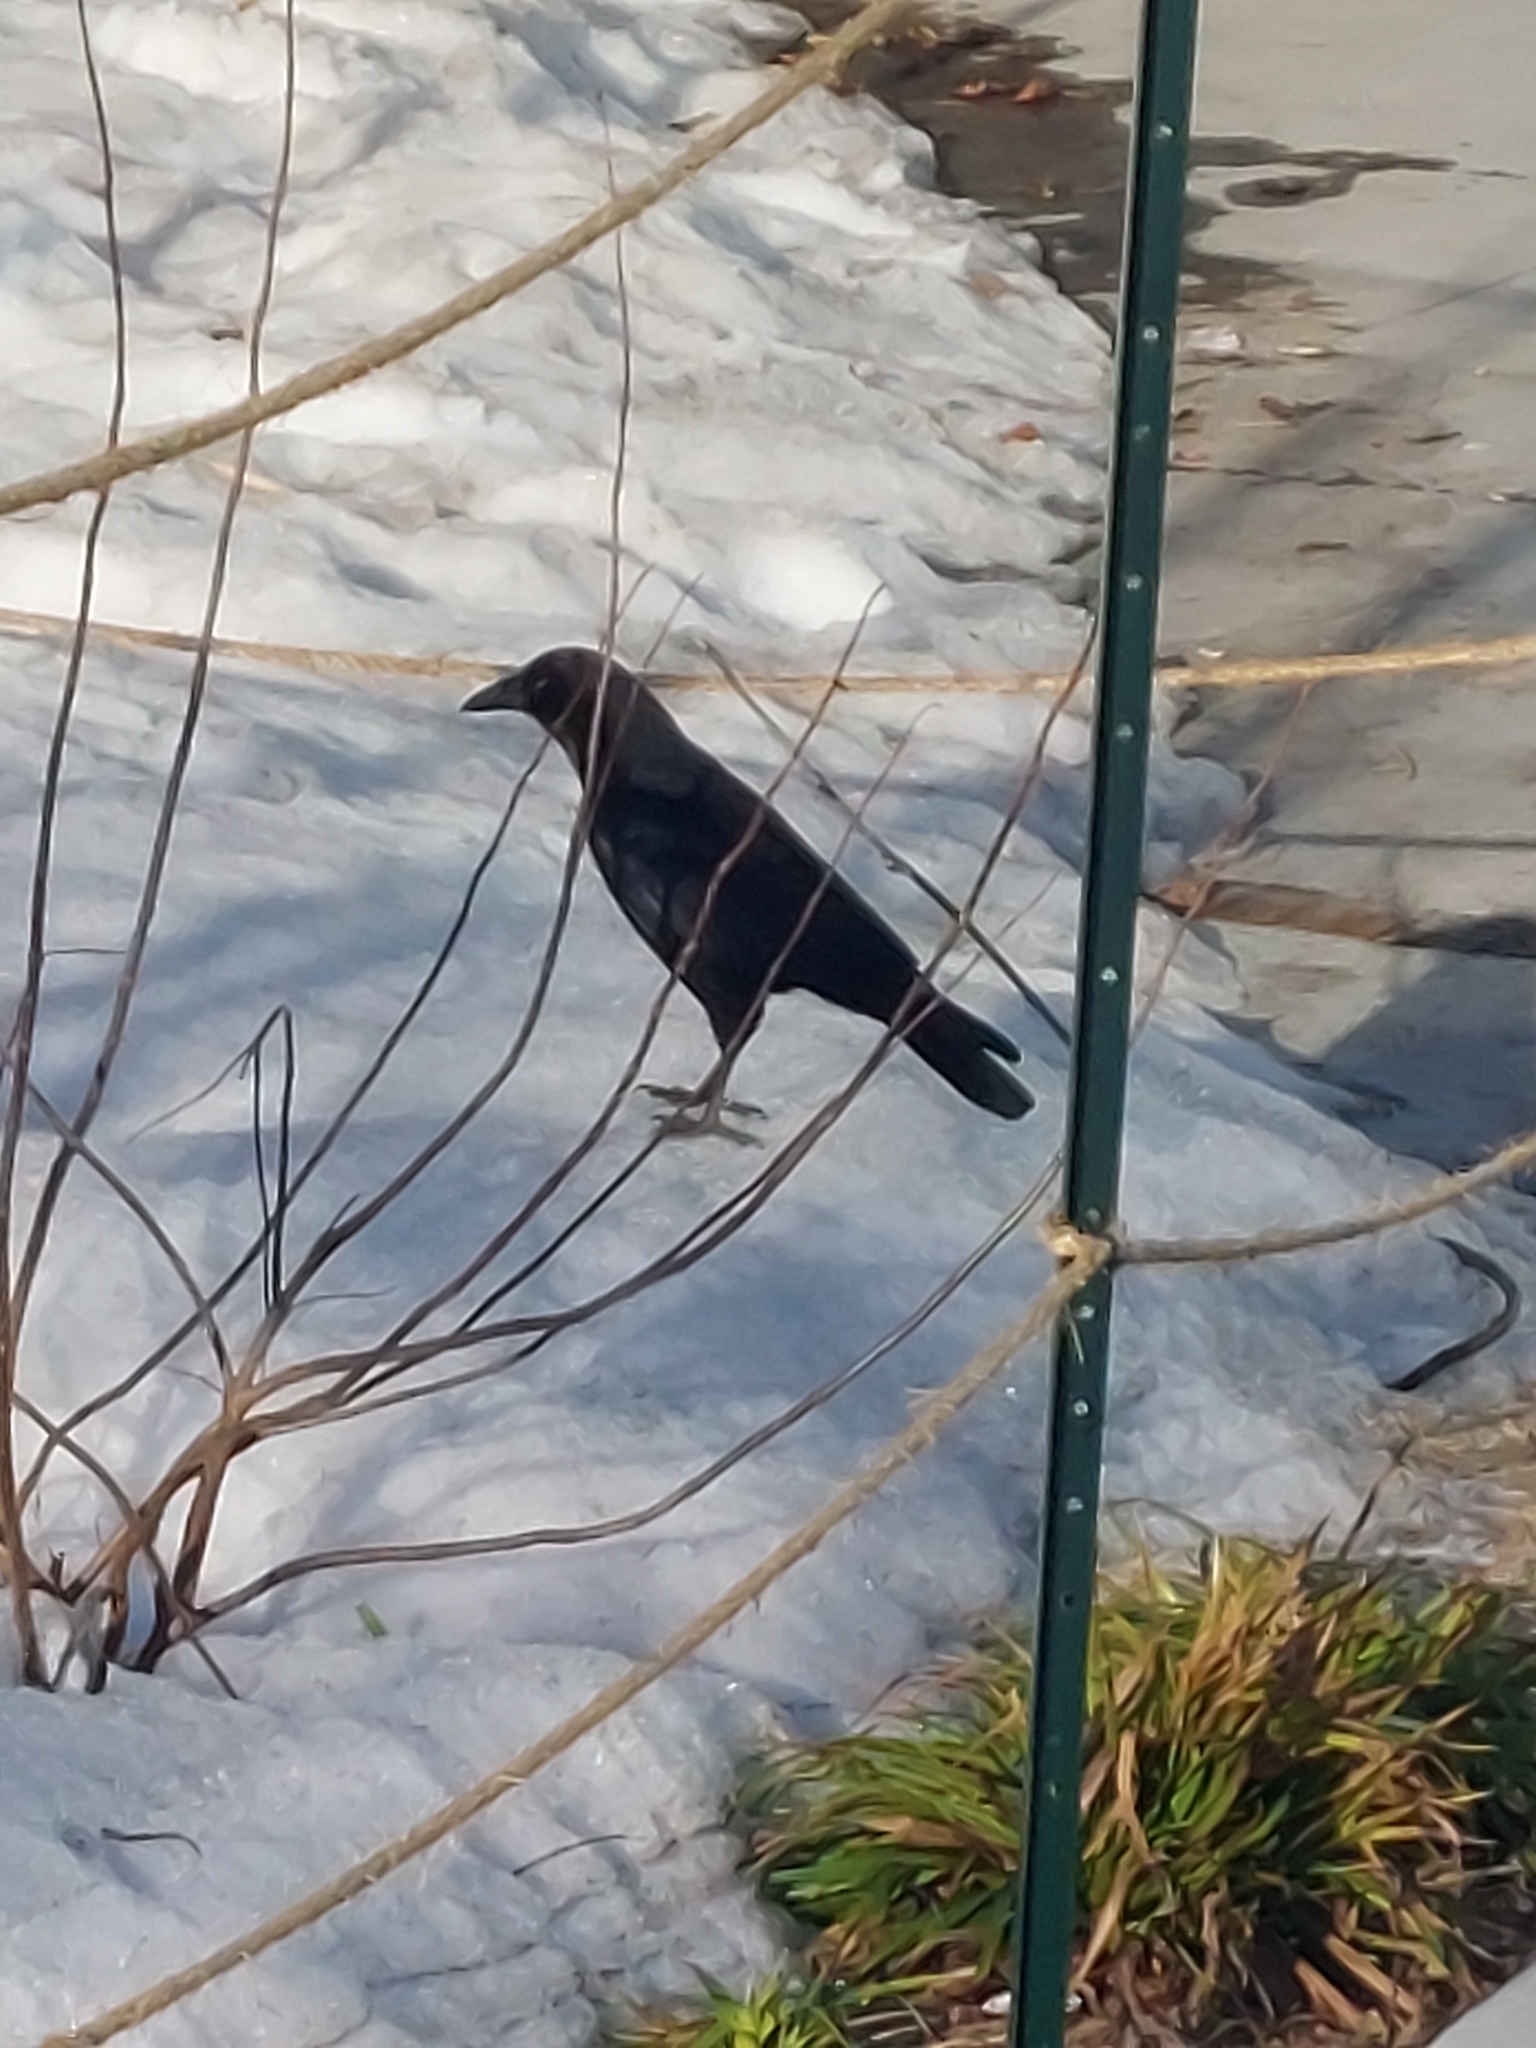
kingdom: Animalia
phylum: Chordata
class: Aves
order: Passeriformes
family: Corvidae
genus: Corvus
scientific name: Corvus brachyrhynchos
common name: American crow
